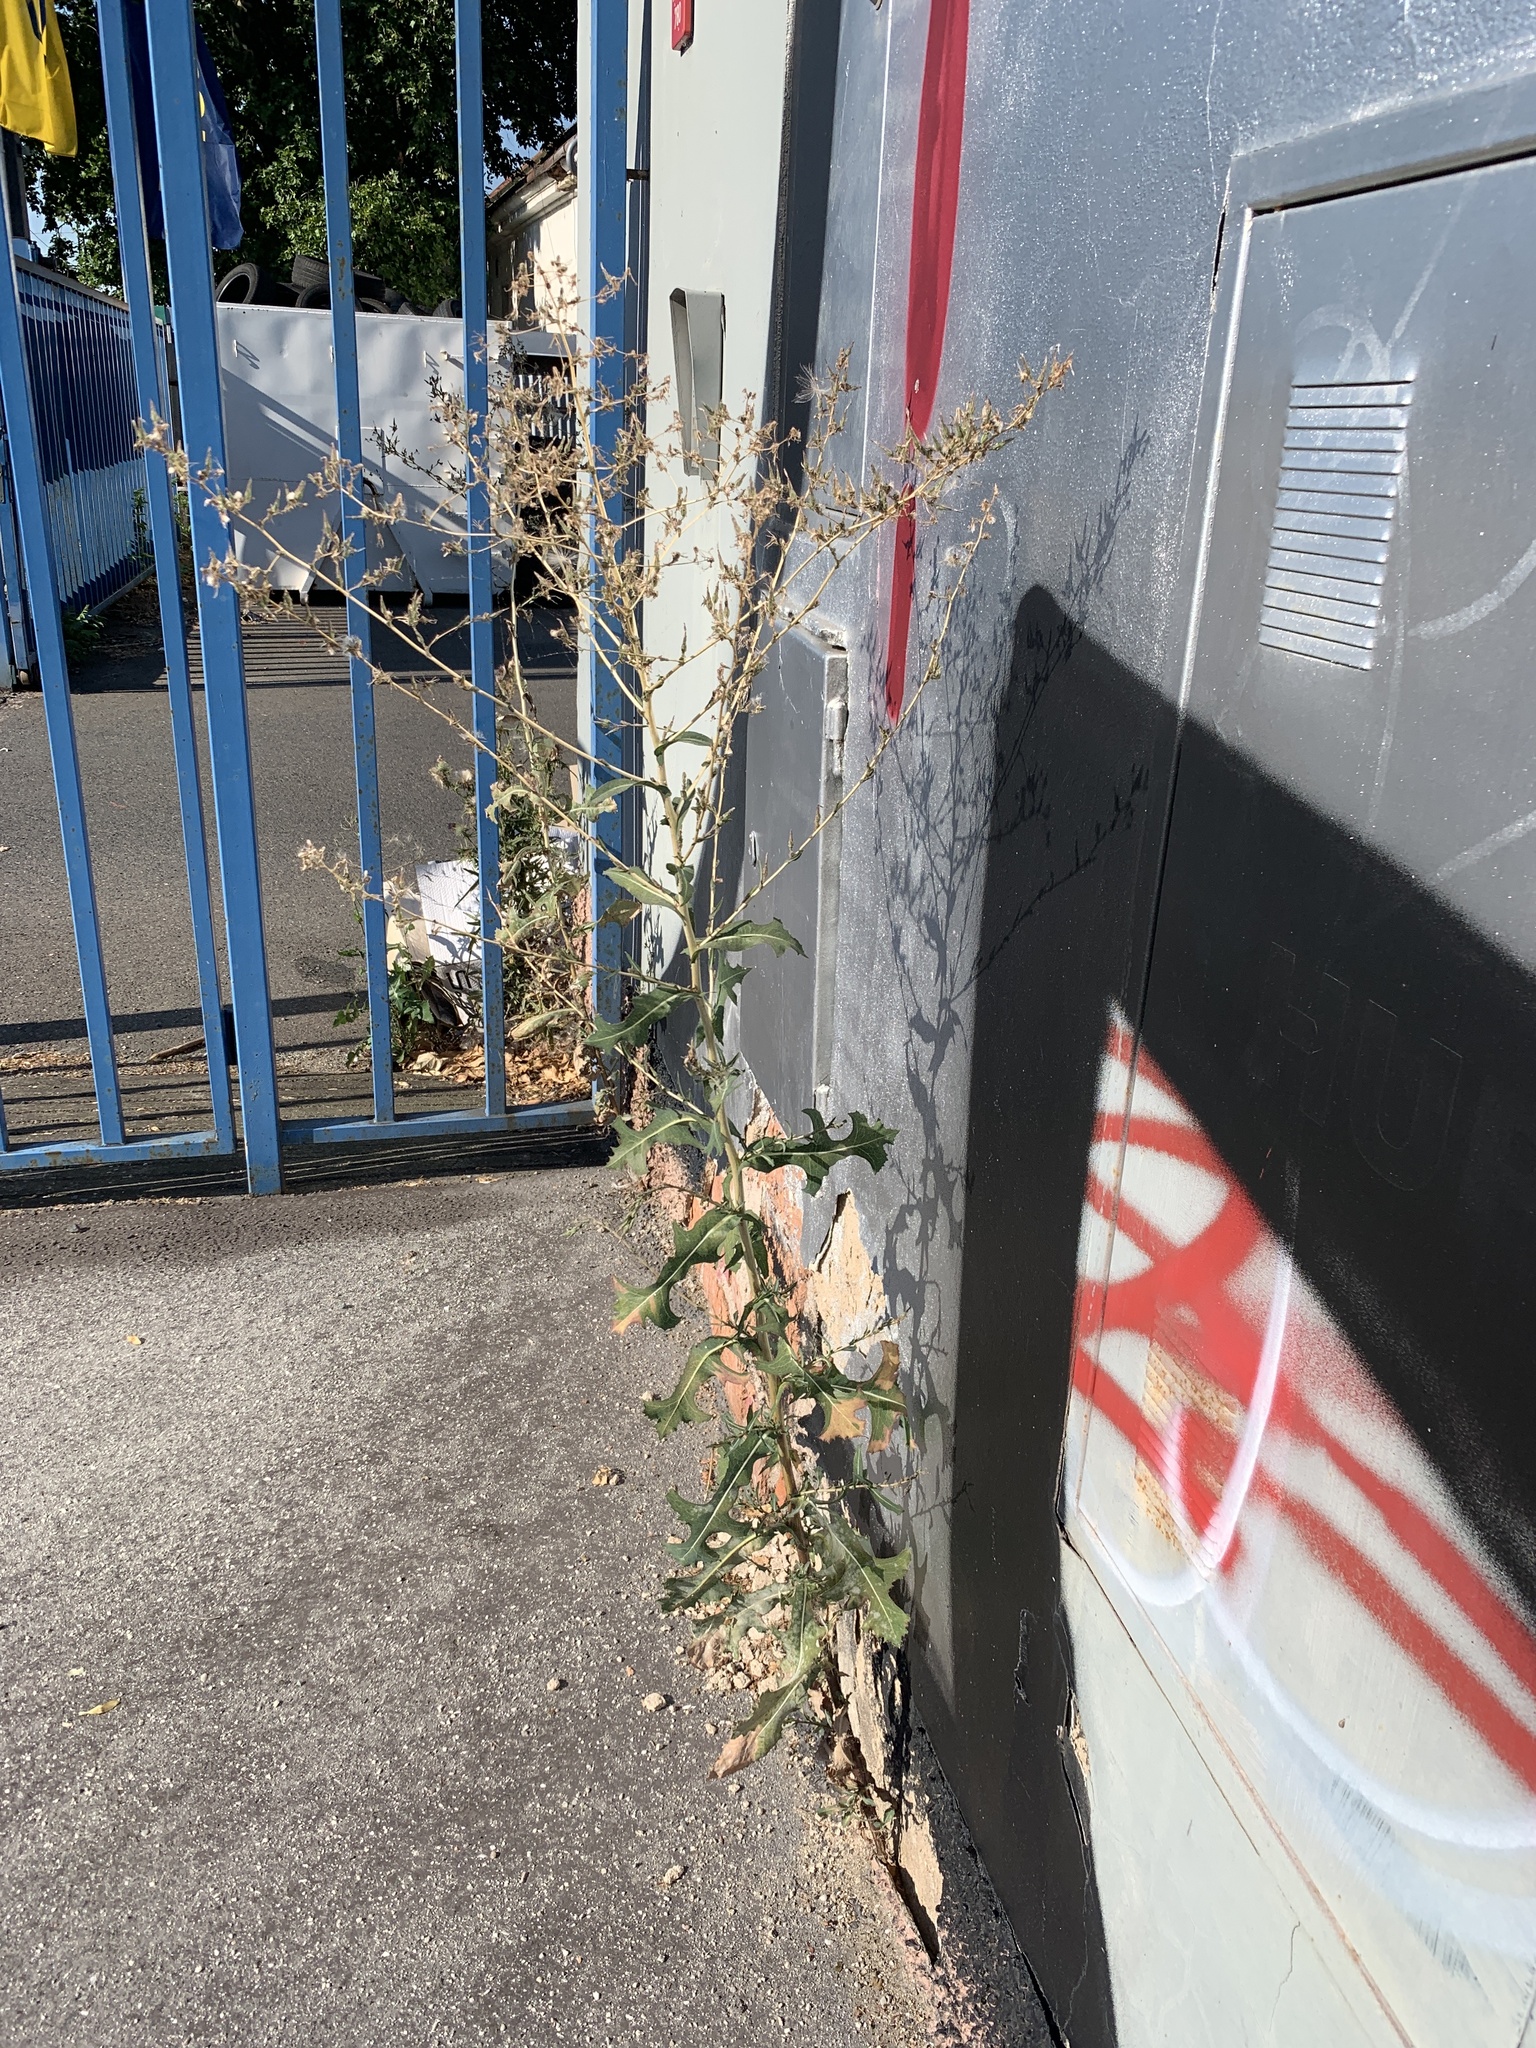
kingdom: Plantae
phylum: Tracheophyta
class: Magnoliopsida
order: Asterales
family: Asteraceae
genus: Lactuca
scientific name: Lactuca serriola
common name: Prickly lettuce
